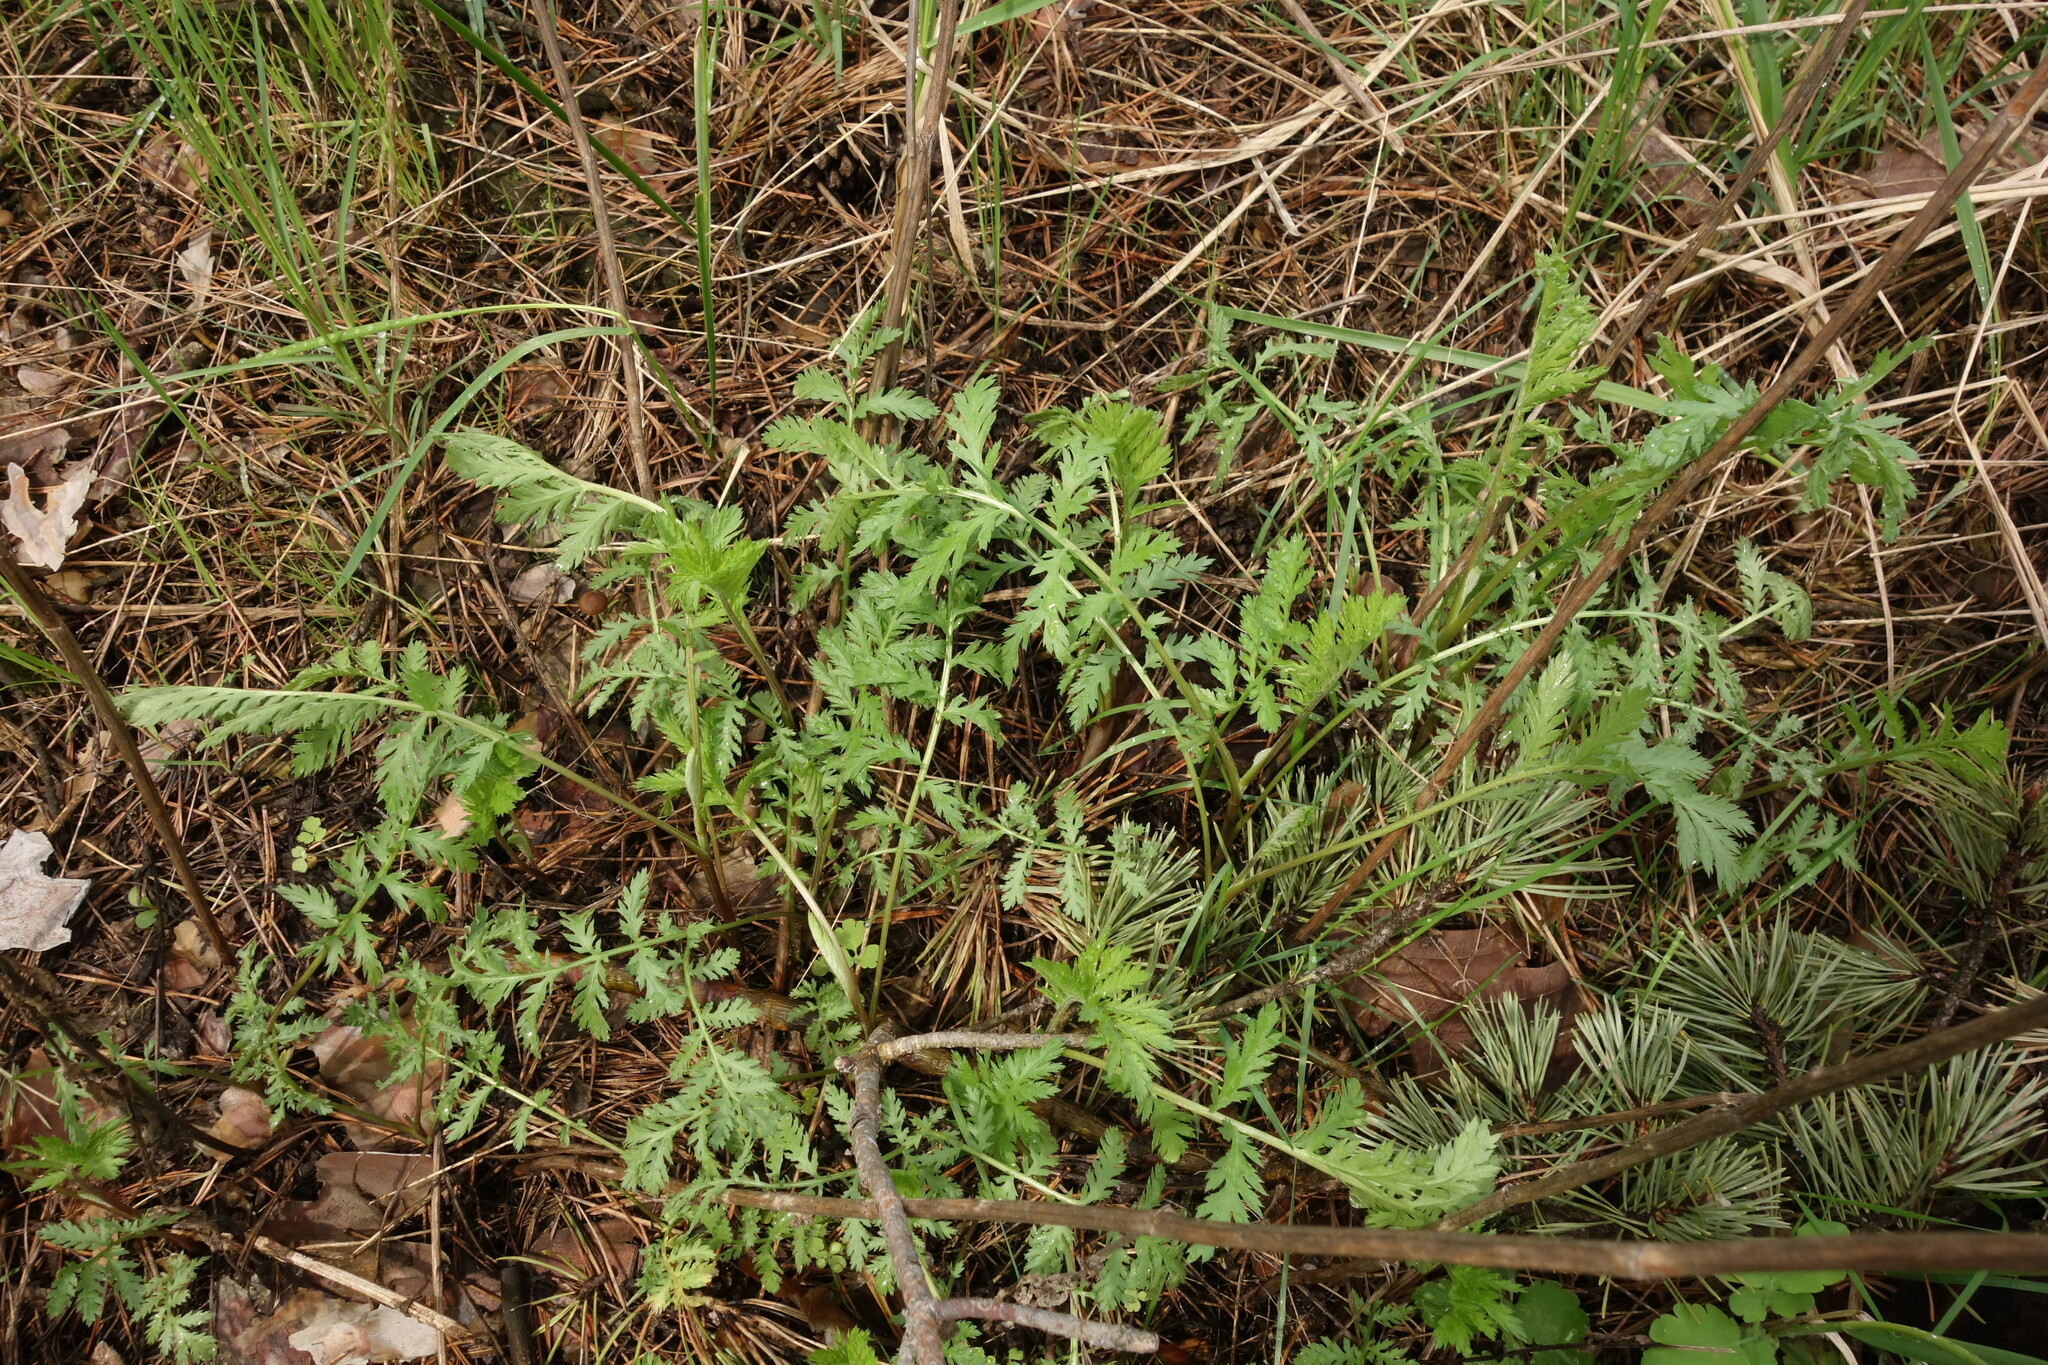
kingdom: Plantae
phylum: Tracheophyta
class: Magnoliopsida
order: Asterales
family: Asteraceae
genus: Tanacetum
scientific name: Tanacetum vulgare
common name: Common tansy
